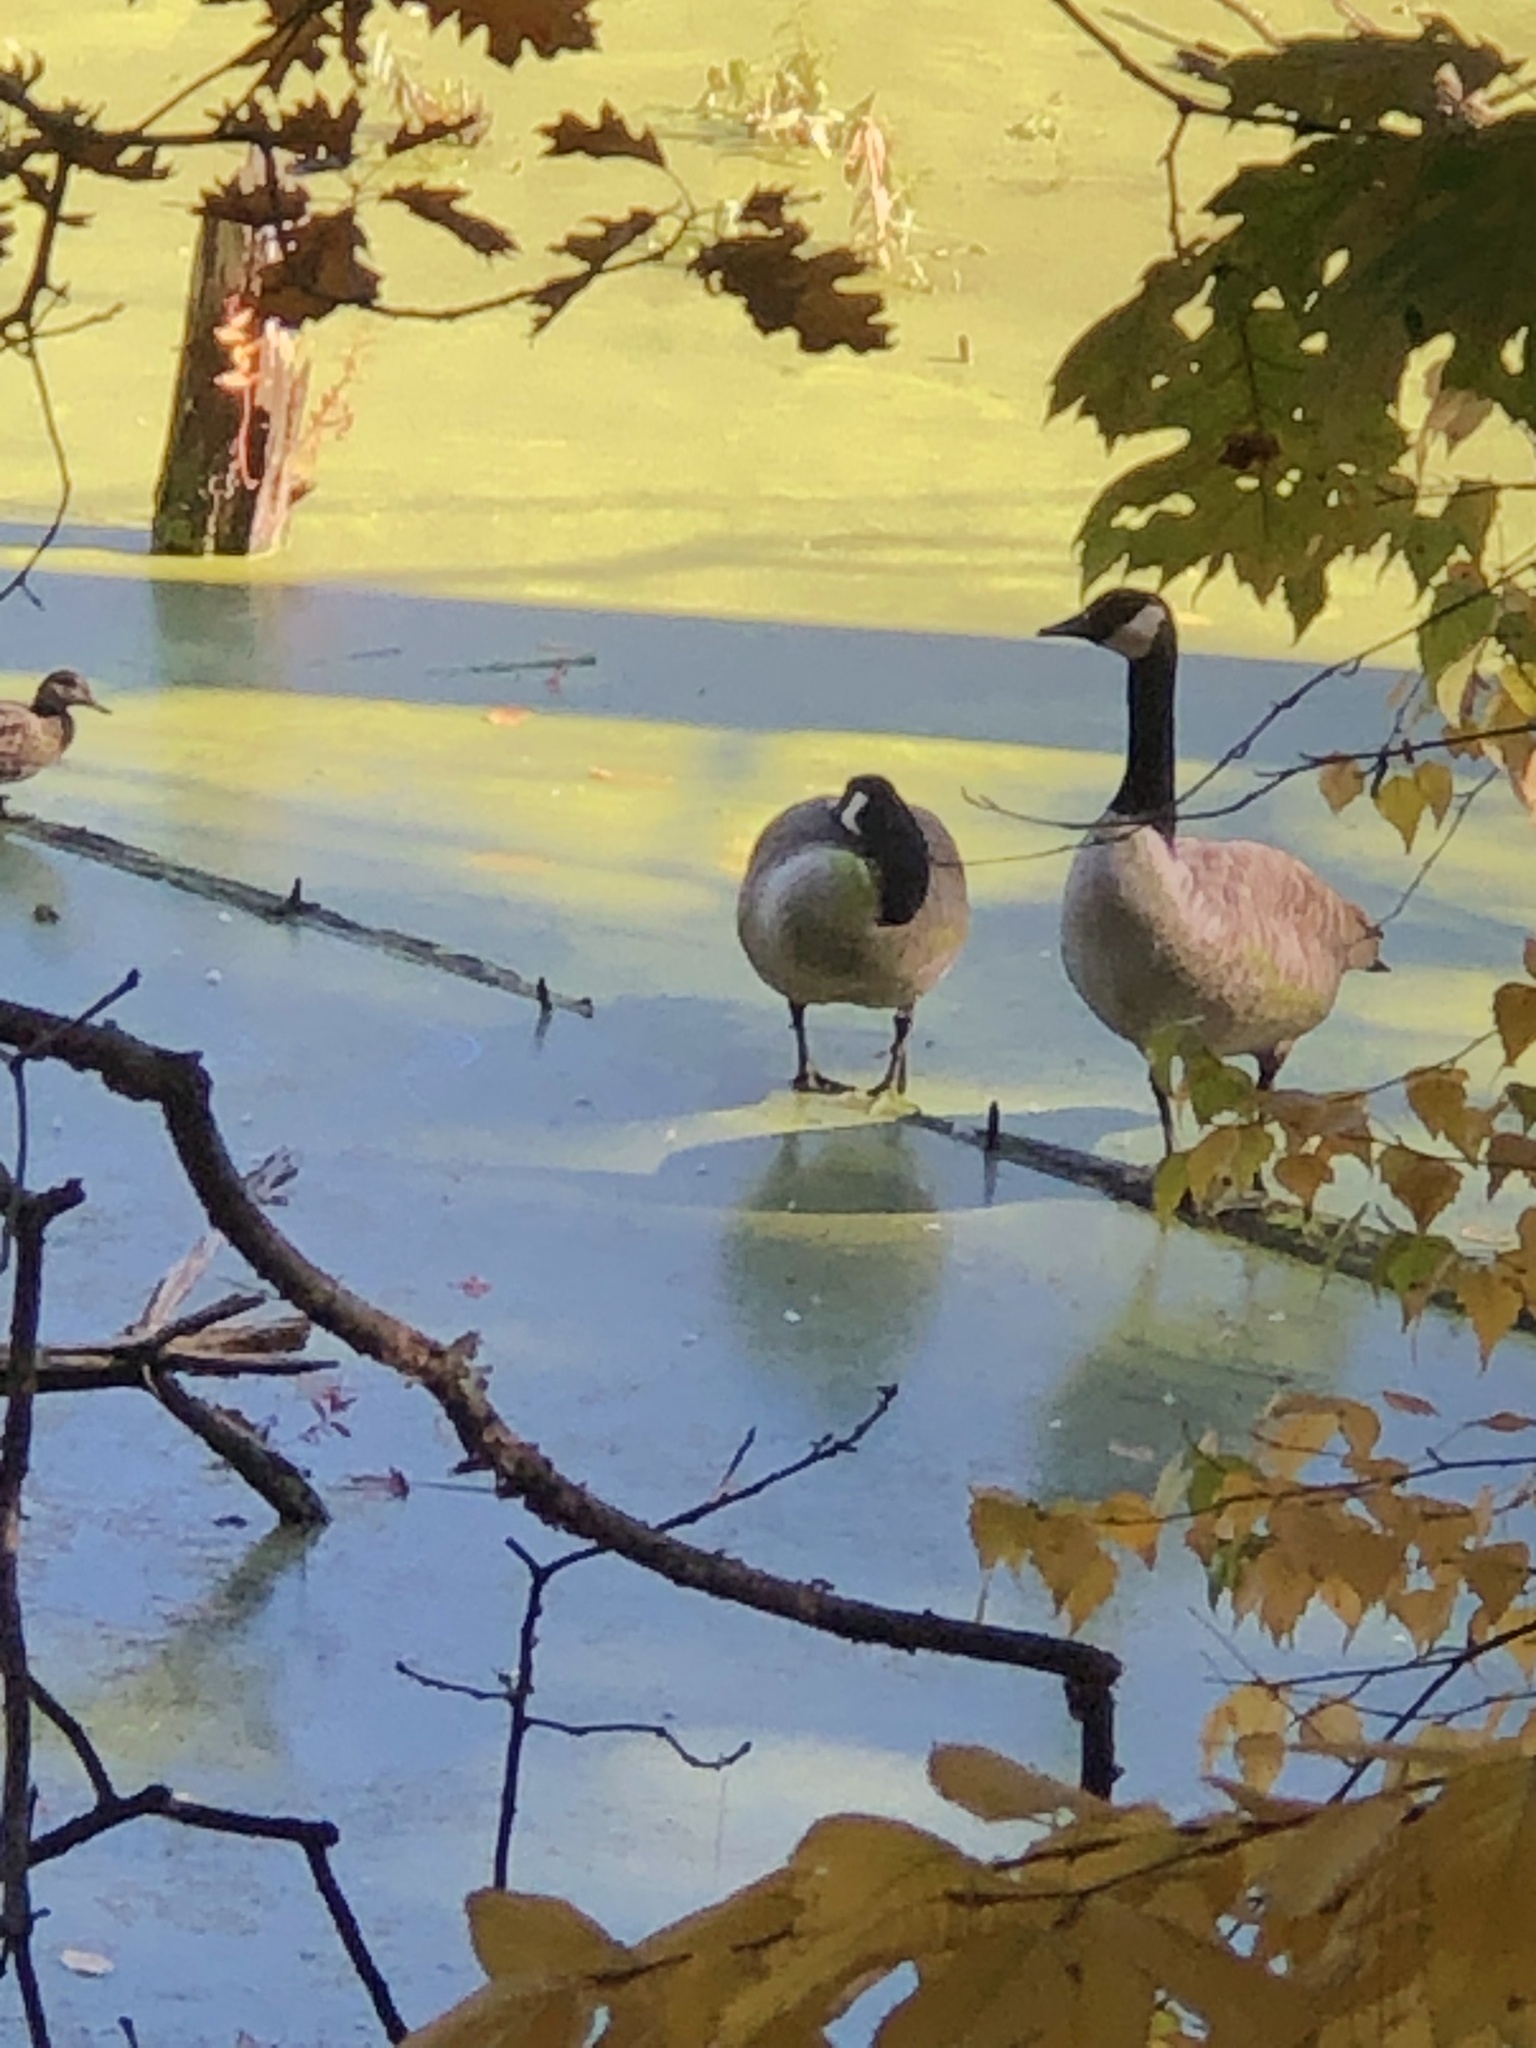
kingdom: Animalia
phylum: Chordata
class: Aves
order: Anseriformes
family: Anatidae
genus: Branta
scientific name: Branta canadensis
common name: Canada goose
